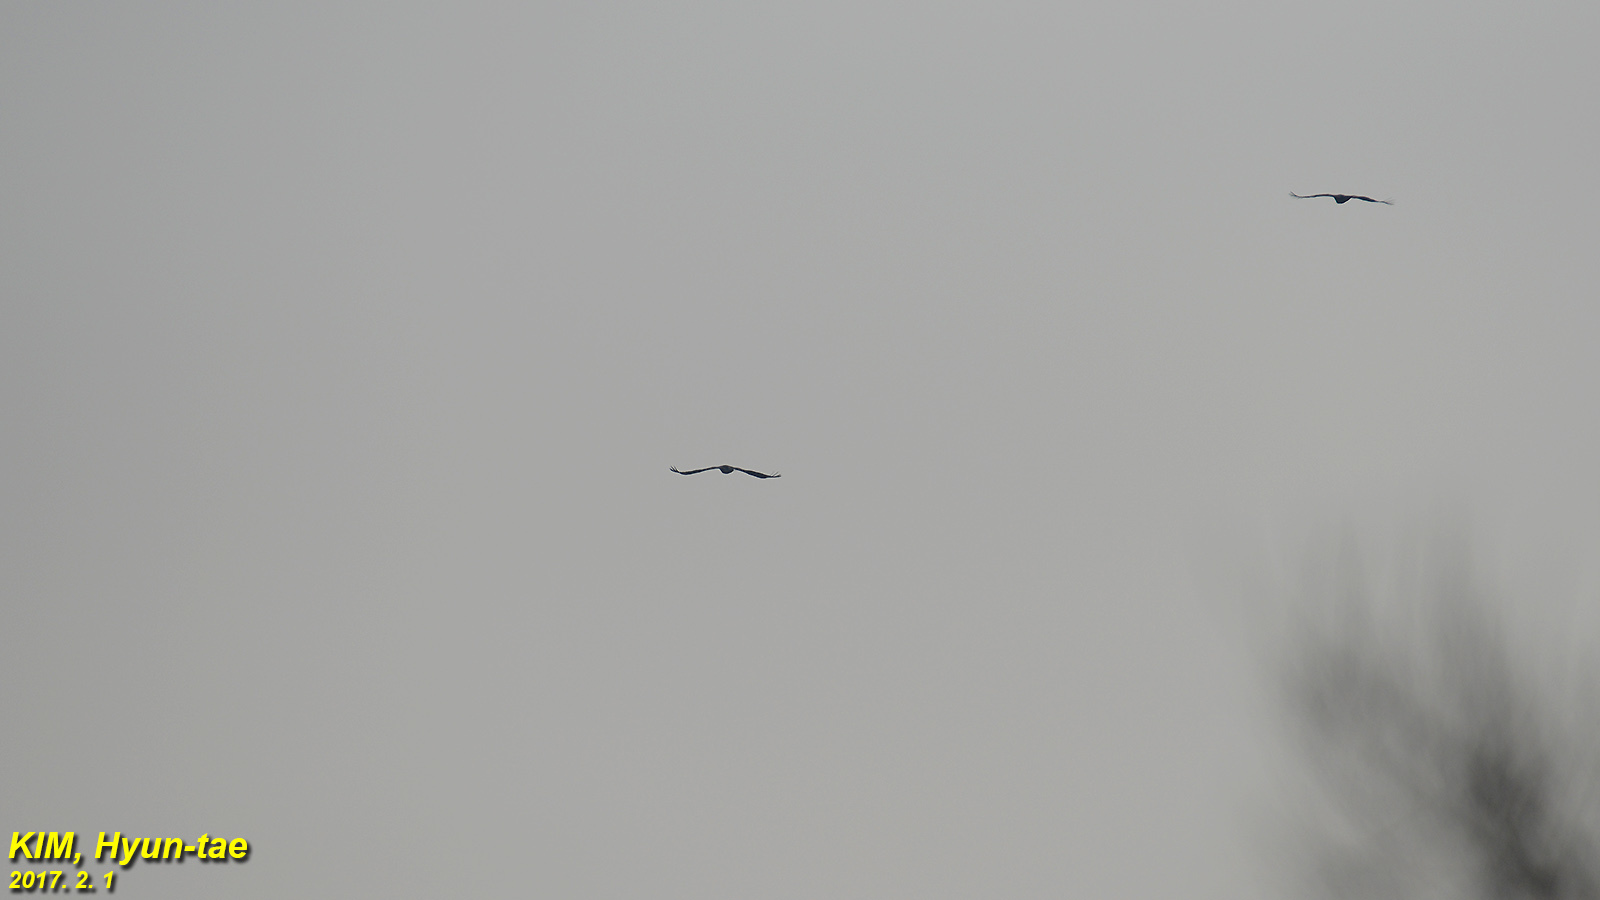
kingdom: Animalia
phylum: Chordata
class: Aves
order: Accipitriformes
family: Accipitridae
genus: Aegypius
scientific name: Aegypius monachus
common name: Cinereous vulture
